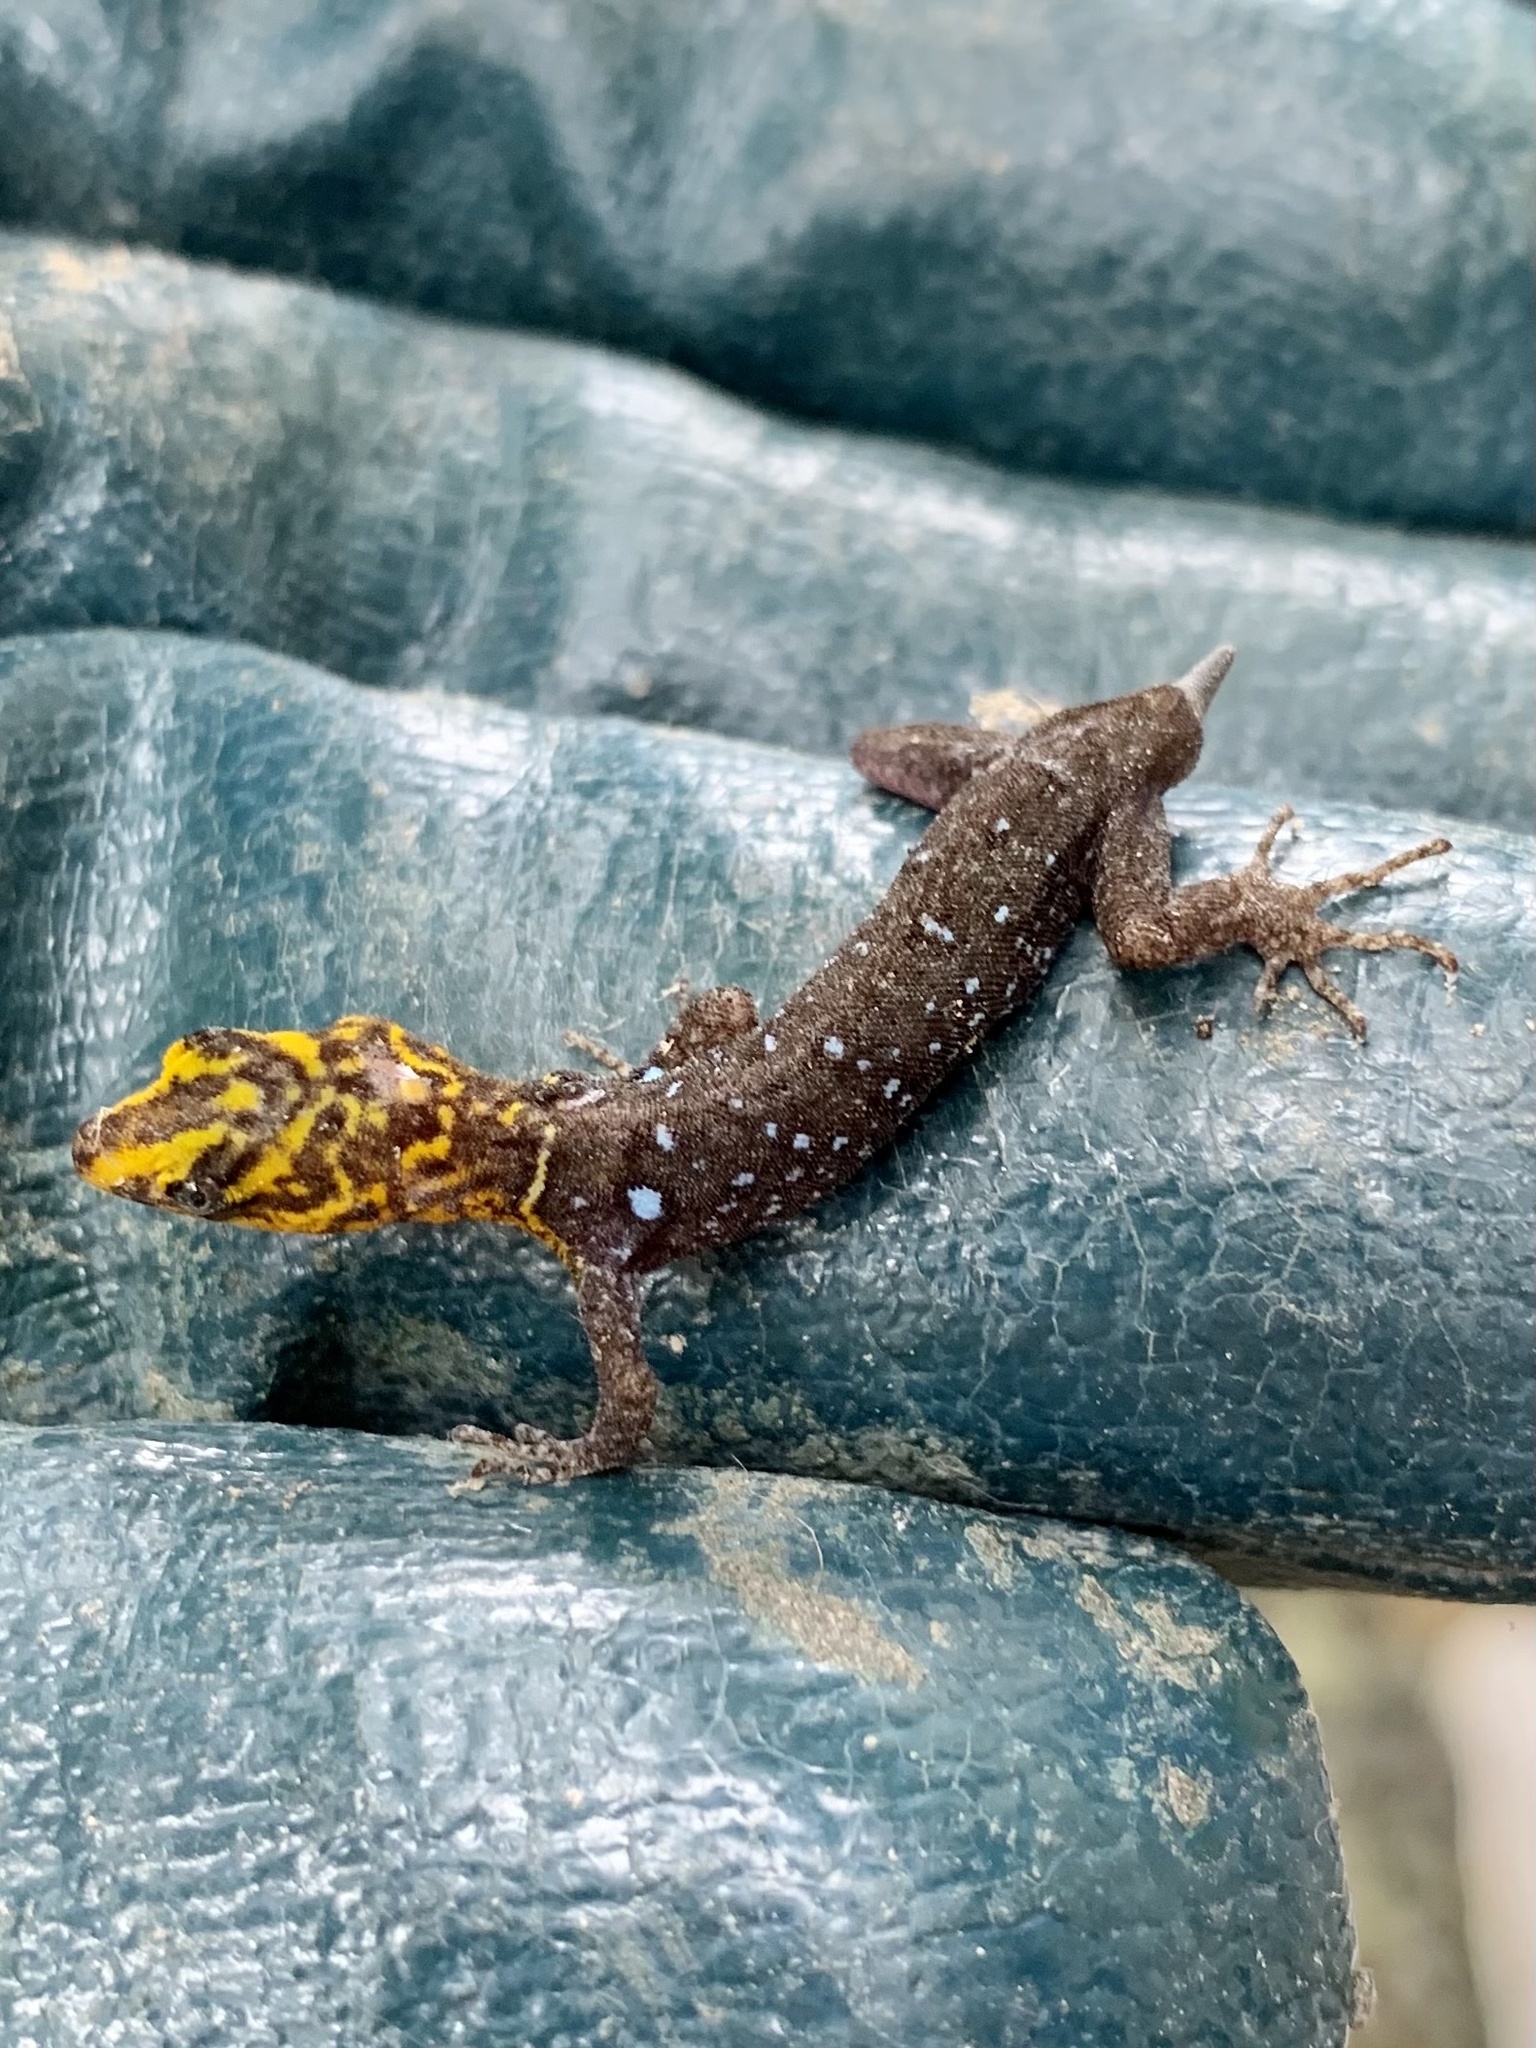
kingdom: Animalia
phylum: Chordata
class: Squamata
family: Sphaerodactylidae
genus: Gonatodes
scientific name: Gonatodes caudiscutatus
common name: Shieldhead gecko
